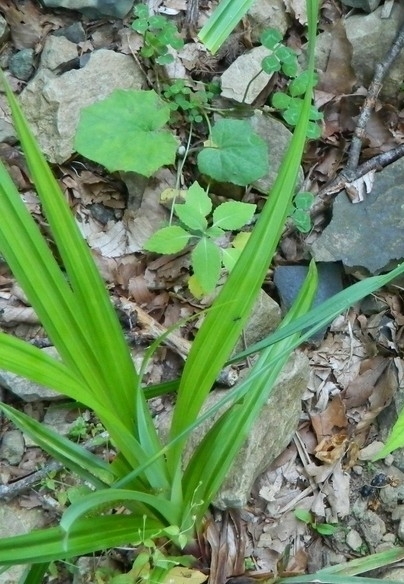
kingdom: Plantae
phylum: Tracheophyta
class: Liliopsida
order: Poales
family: Cyperaceae
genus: Carex
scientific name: Carex pendula
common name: Pendulous sedge
